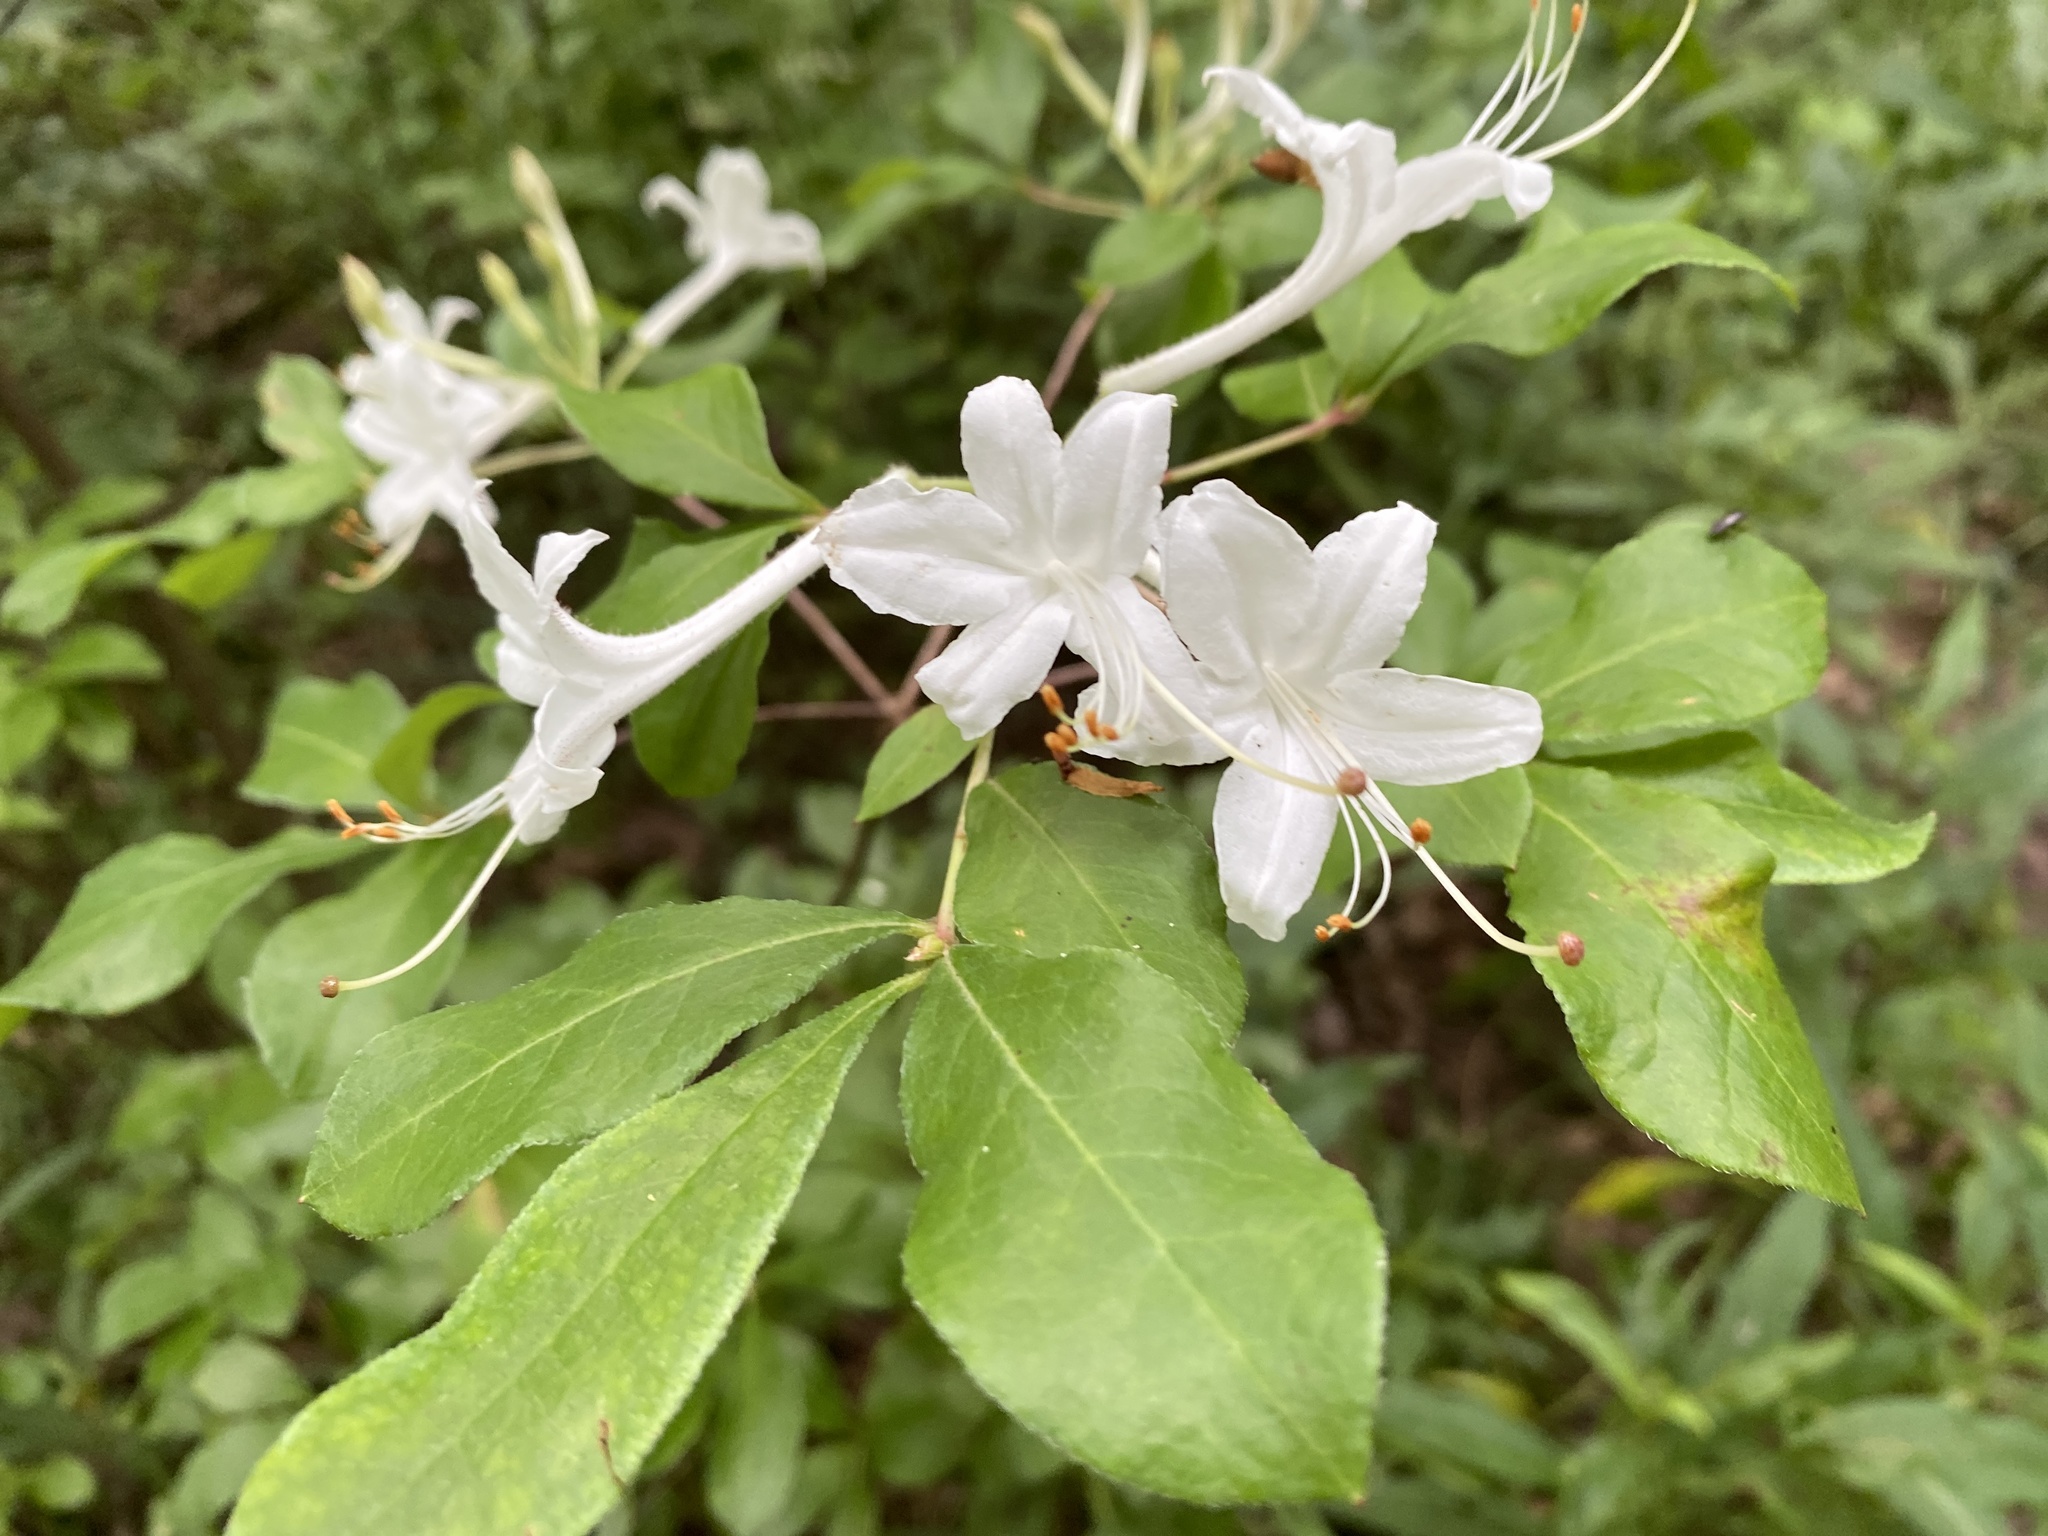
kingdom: Plantae
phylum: Tracheophyta
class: Magnoliopsida
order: Ericales
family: Ericaceae
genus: Rhododendron
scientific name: Rhododendron viscosum
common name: Clammy azalea
